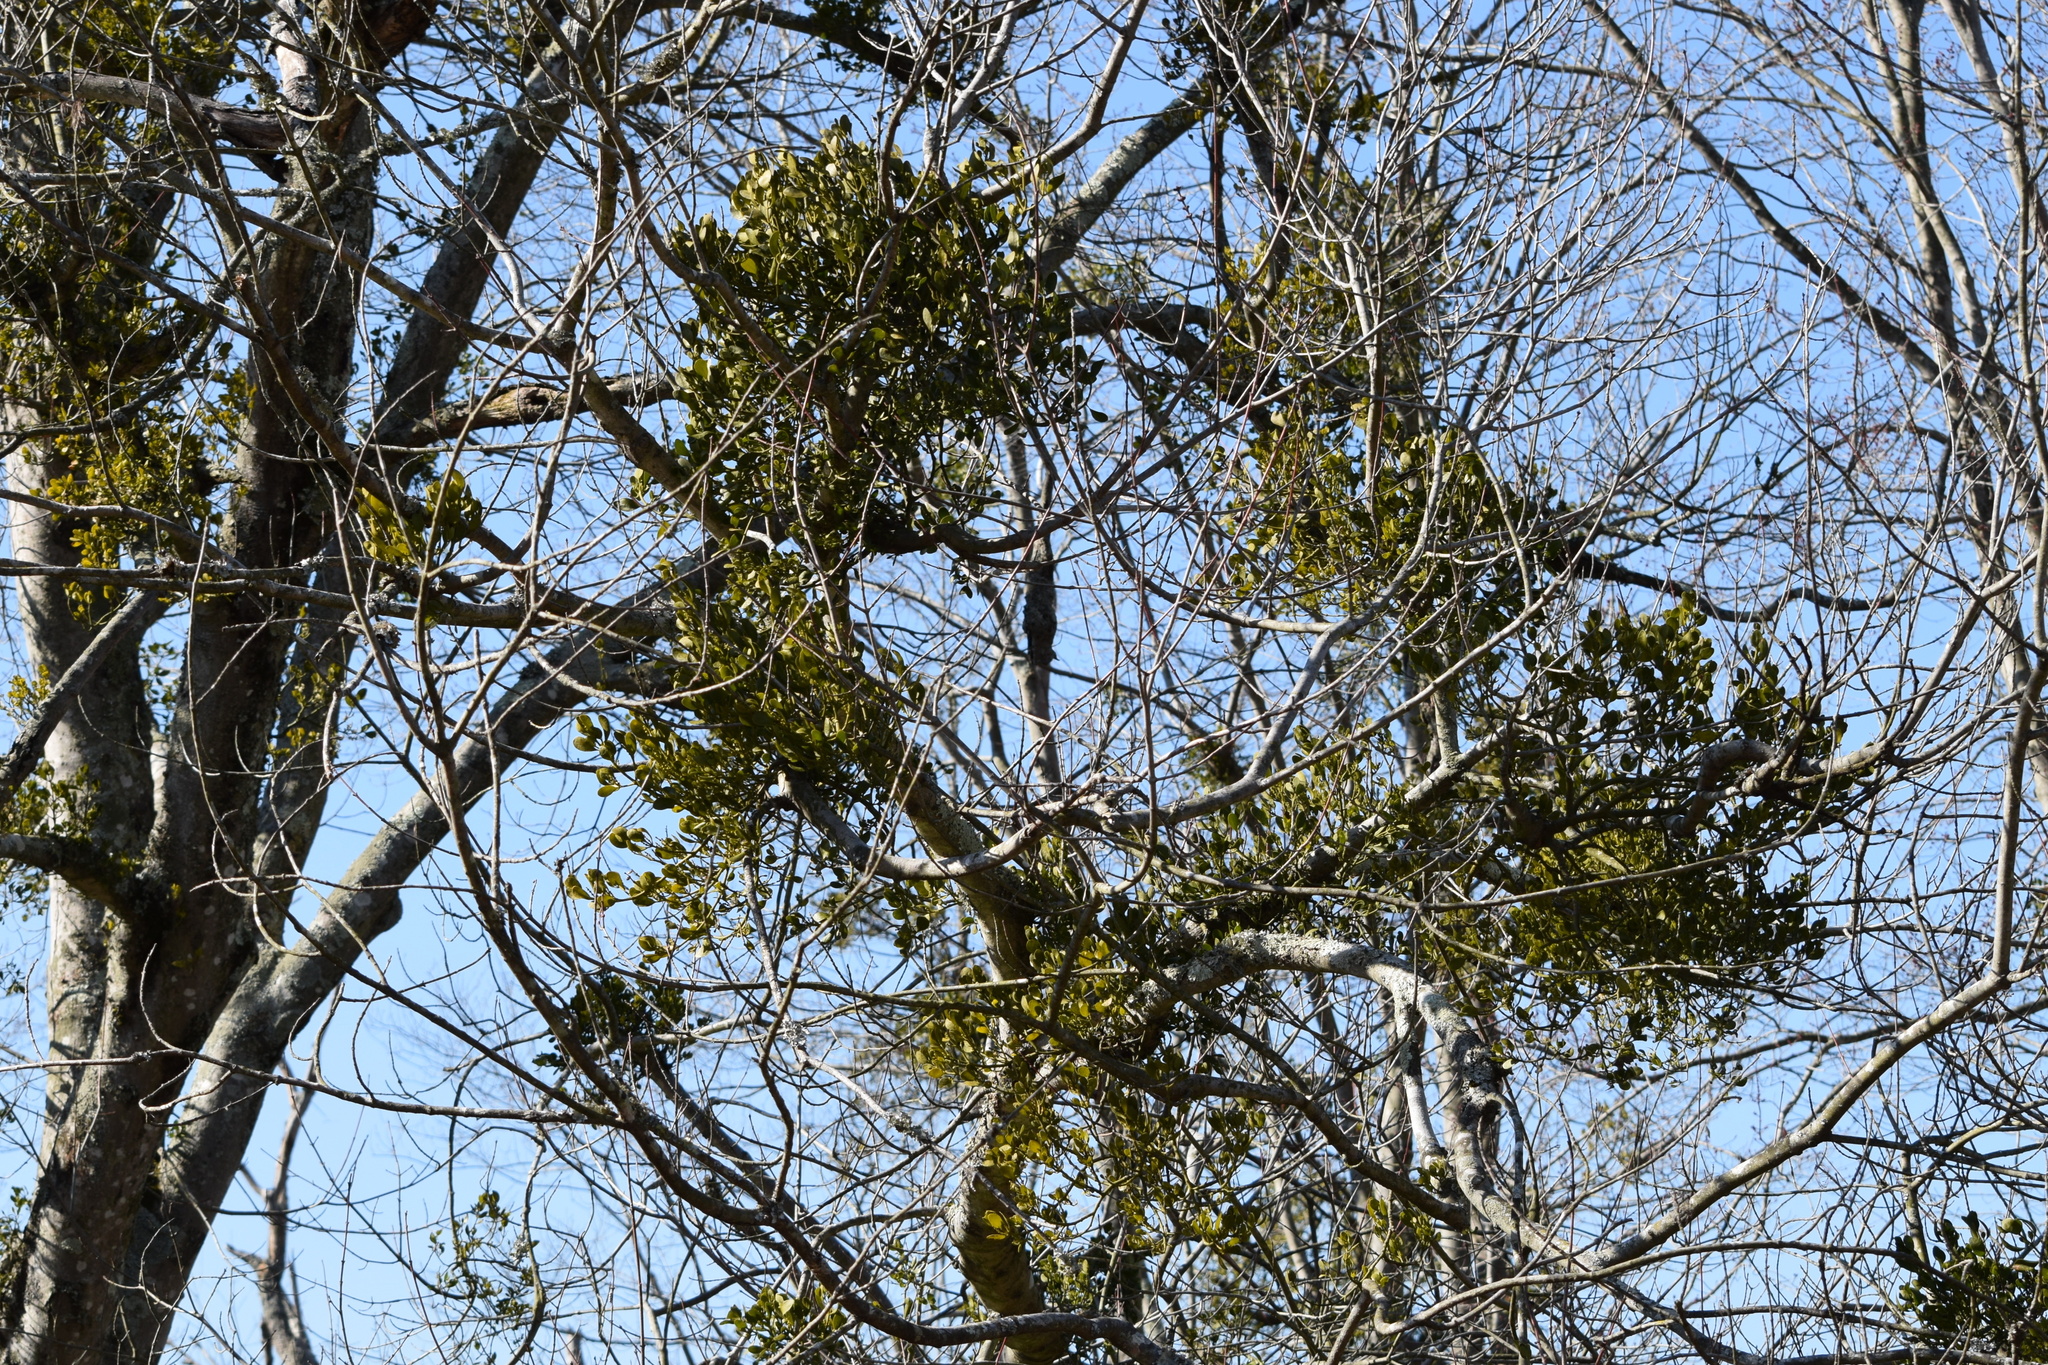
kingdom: Plantae
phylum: Tracheophyta
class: Magnoliopsida
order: Santalales
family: Viscaceae
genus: Phoradendron
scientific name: Phoradendron leucarpum
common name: Pacific mistletoe
